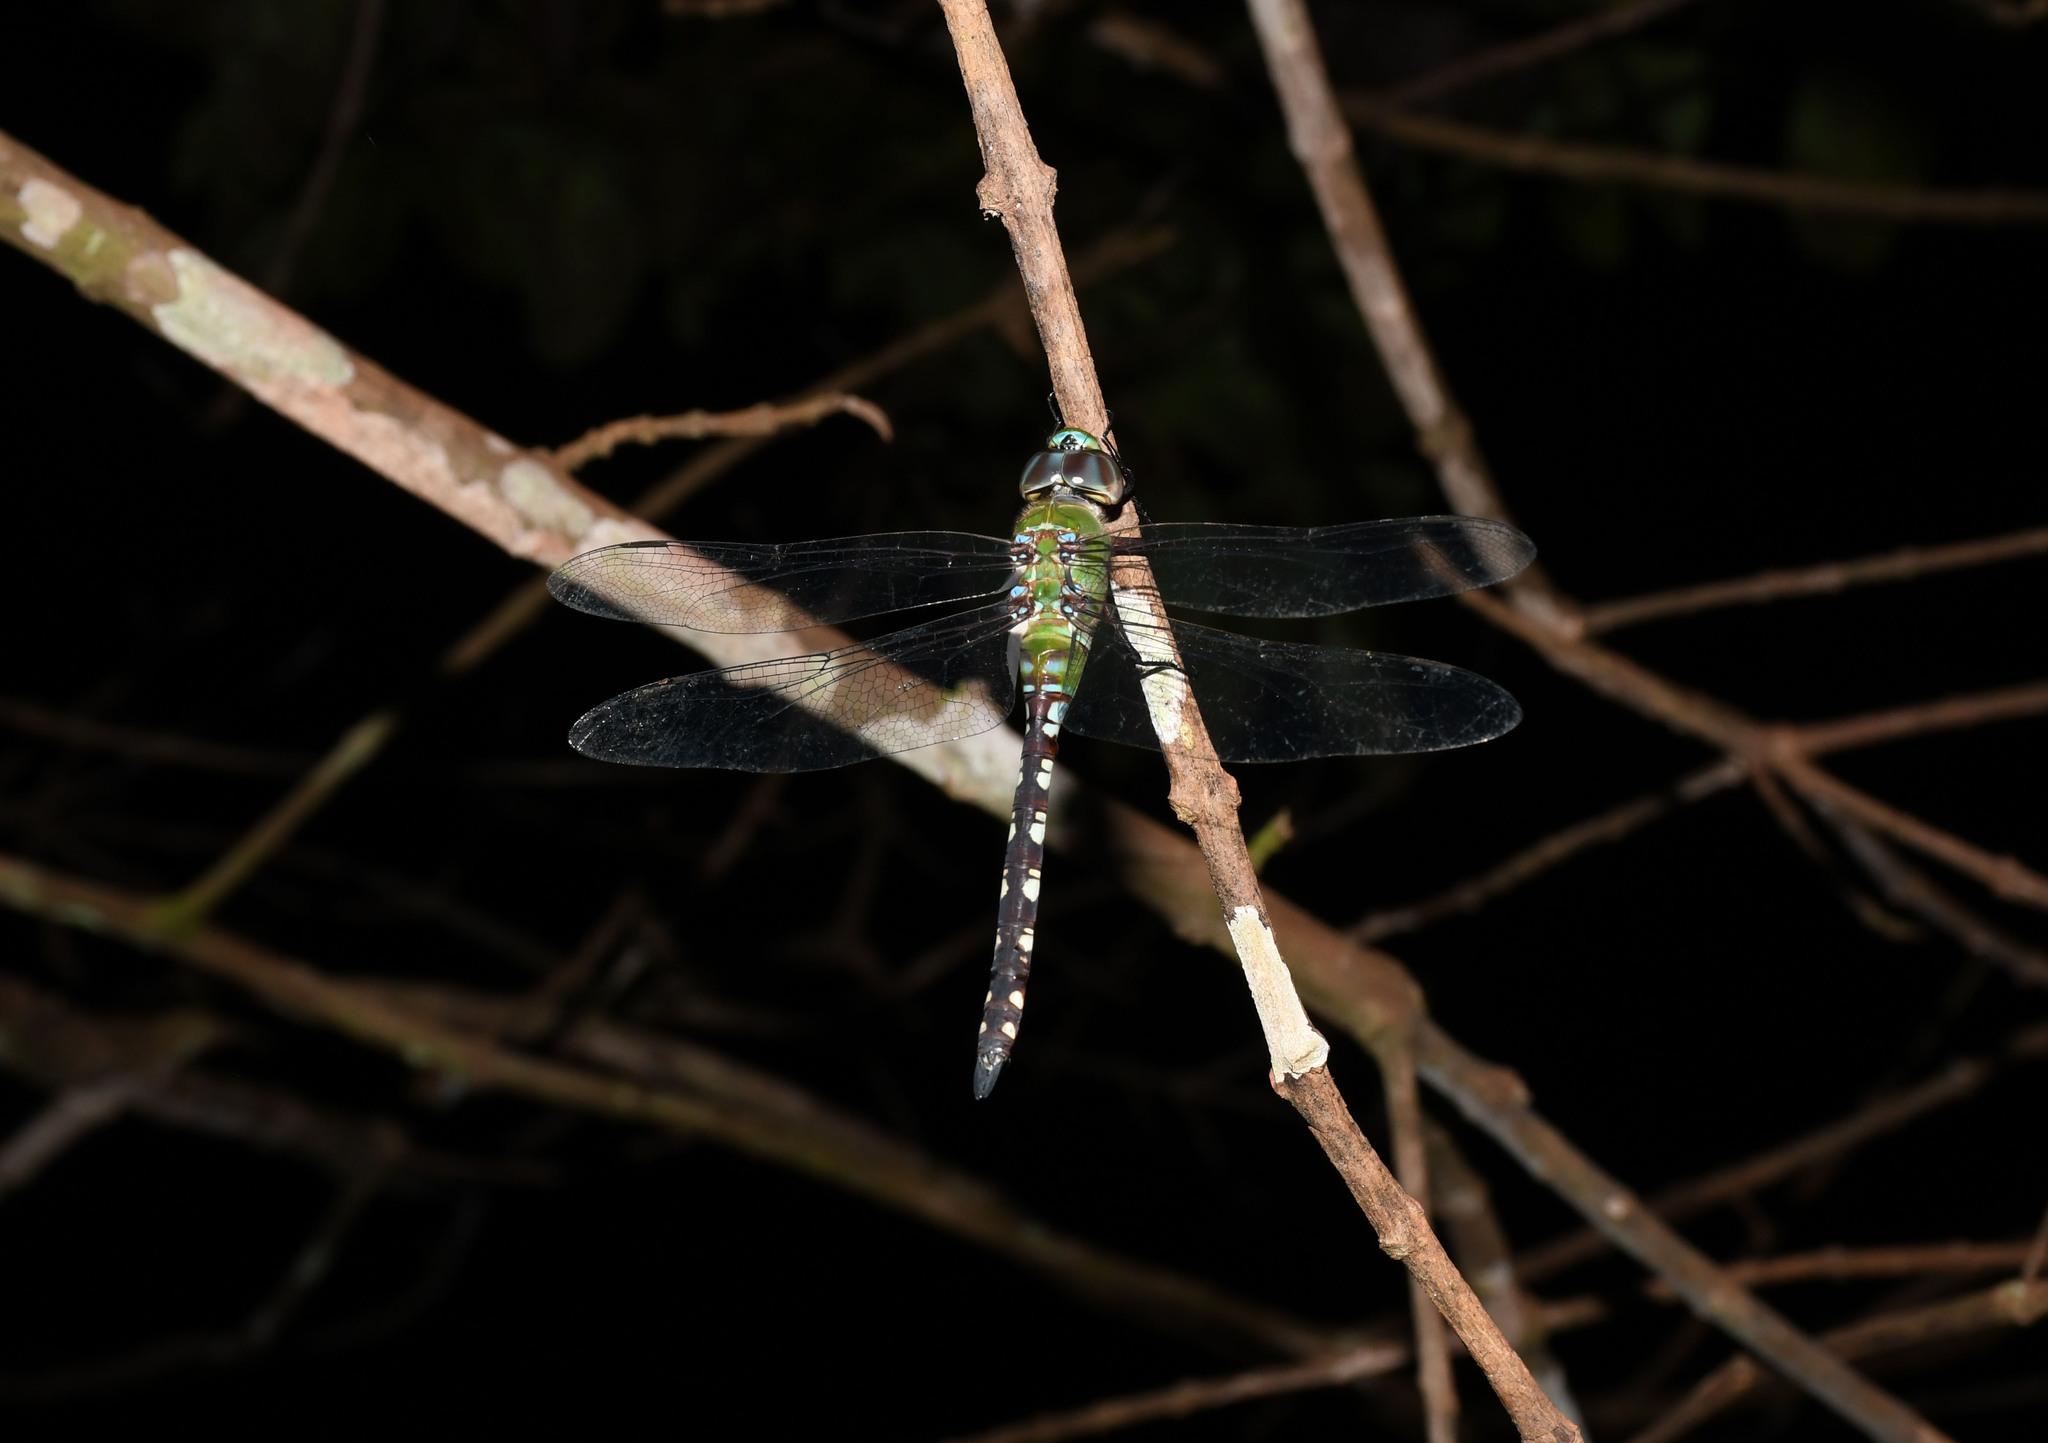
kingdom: Animalia
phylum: Arthropoda
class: Insecta
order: Odonata
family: Aeshnidae
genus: Anax
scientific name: Anax amazili
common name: Amazon darner
